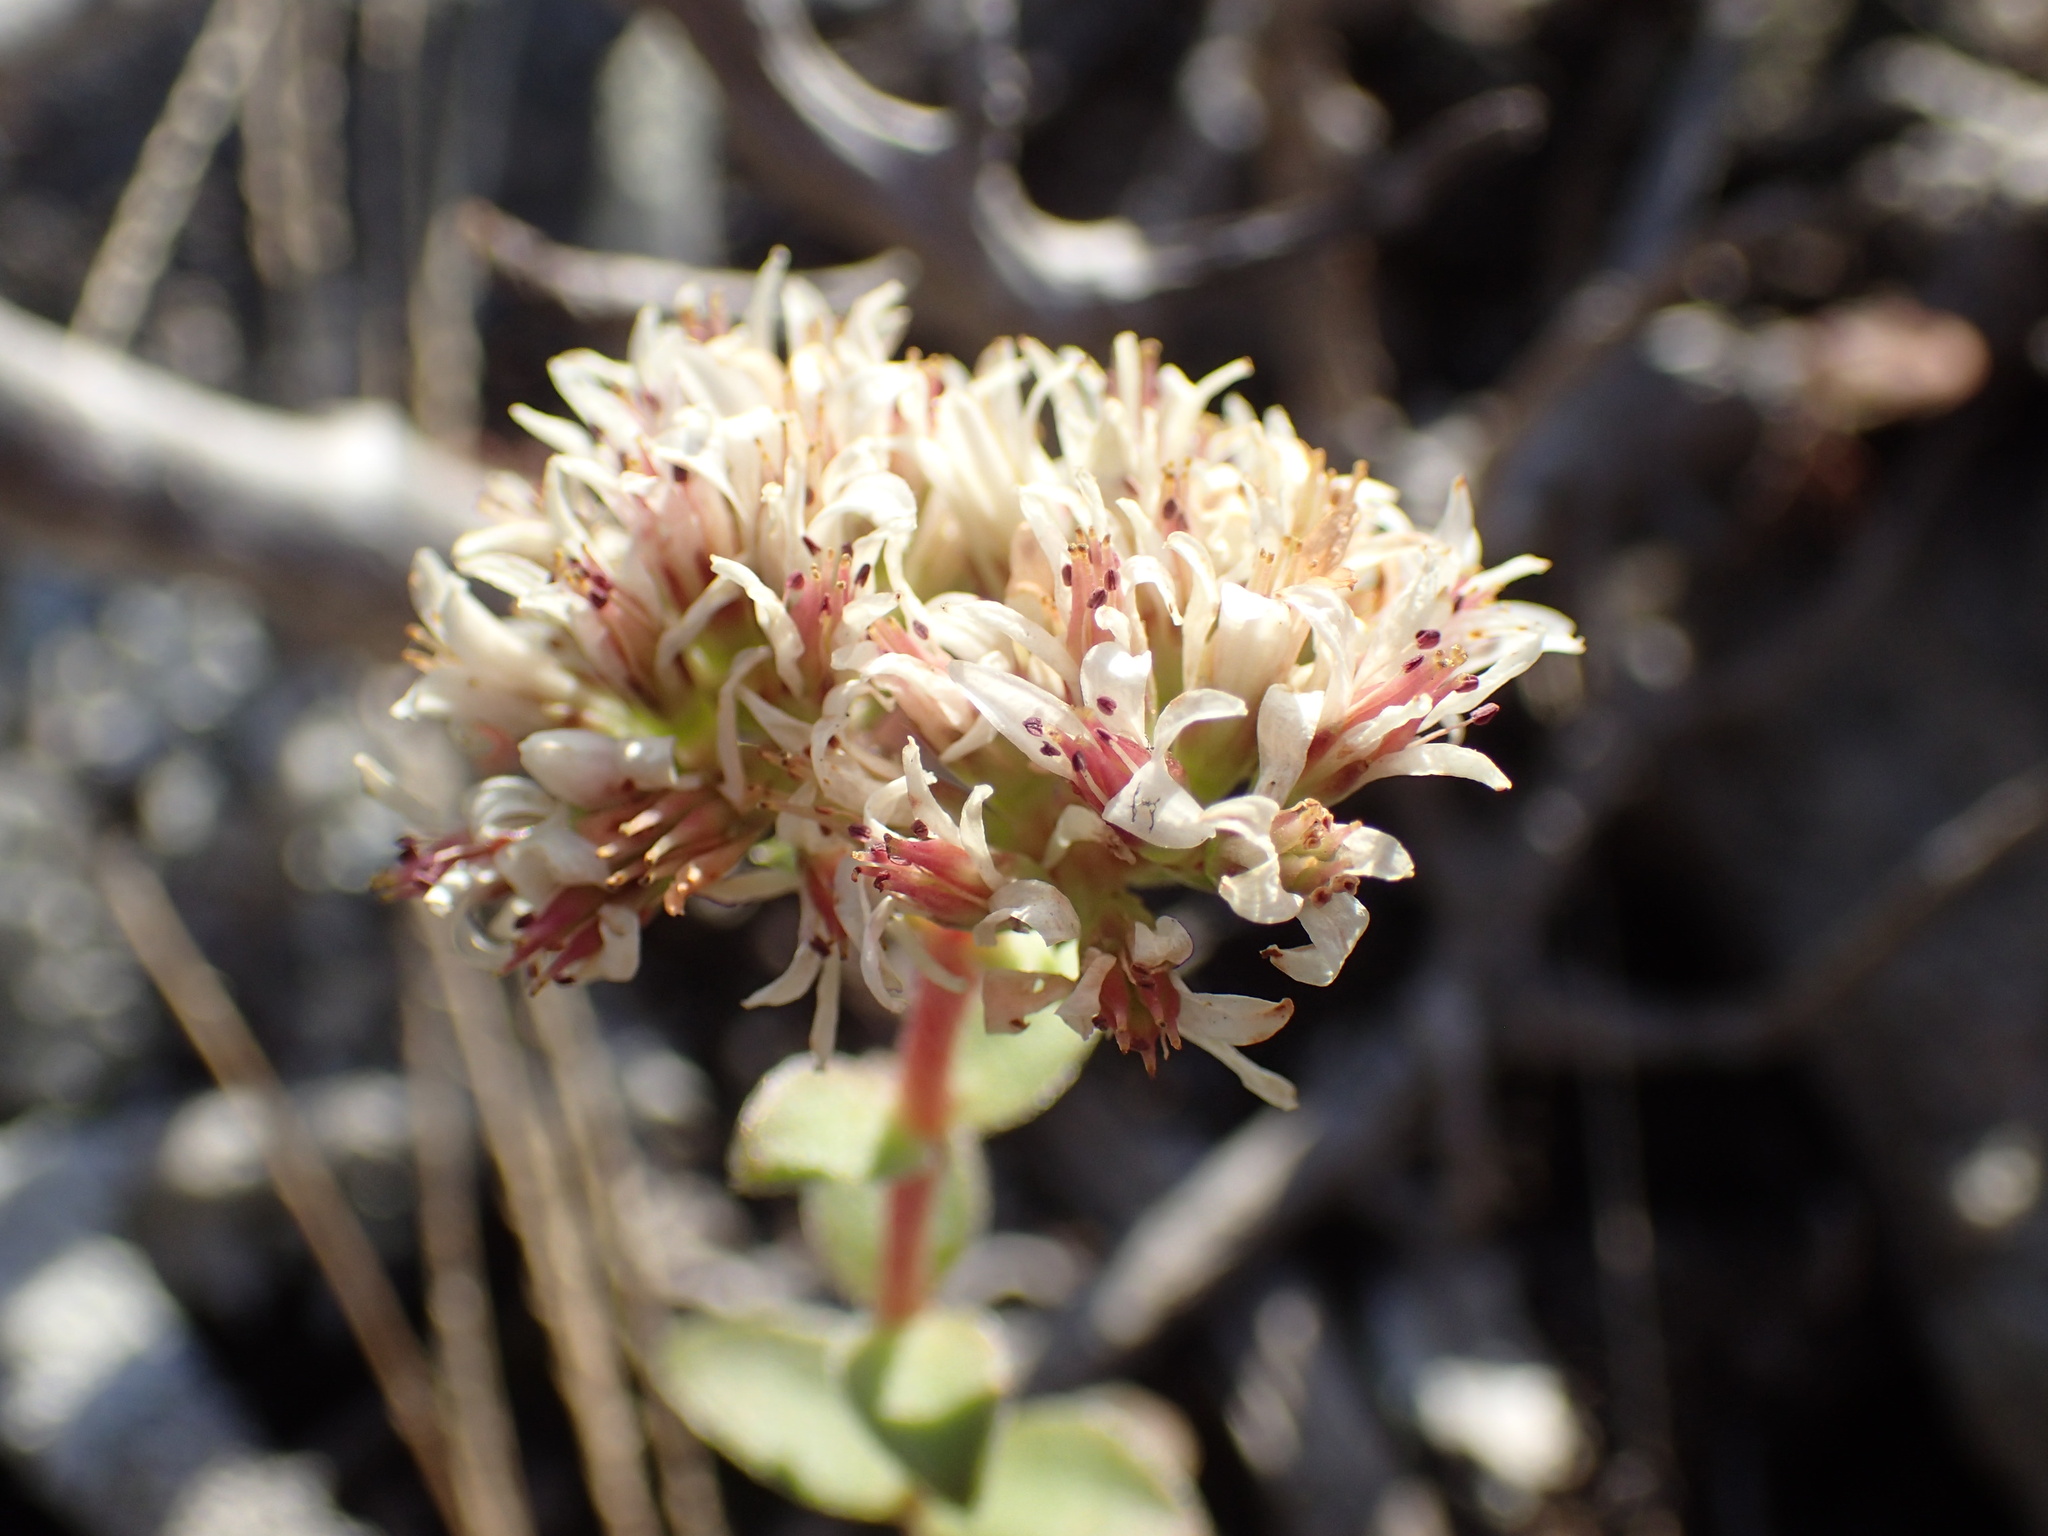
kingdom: Plantae
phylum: Tracheophyta
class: Magnoliopsida
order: Saxifragales
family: Crassulaceae
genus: Crassula
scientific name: Crassula obovata
